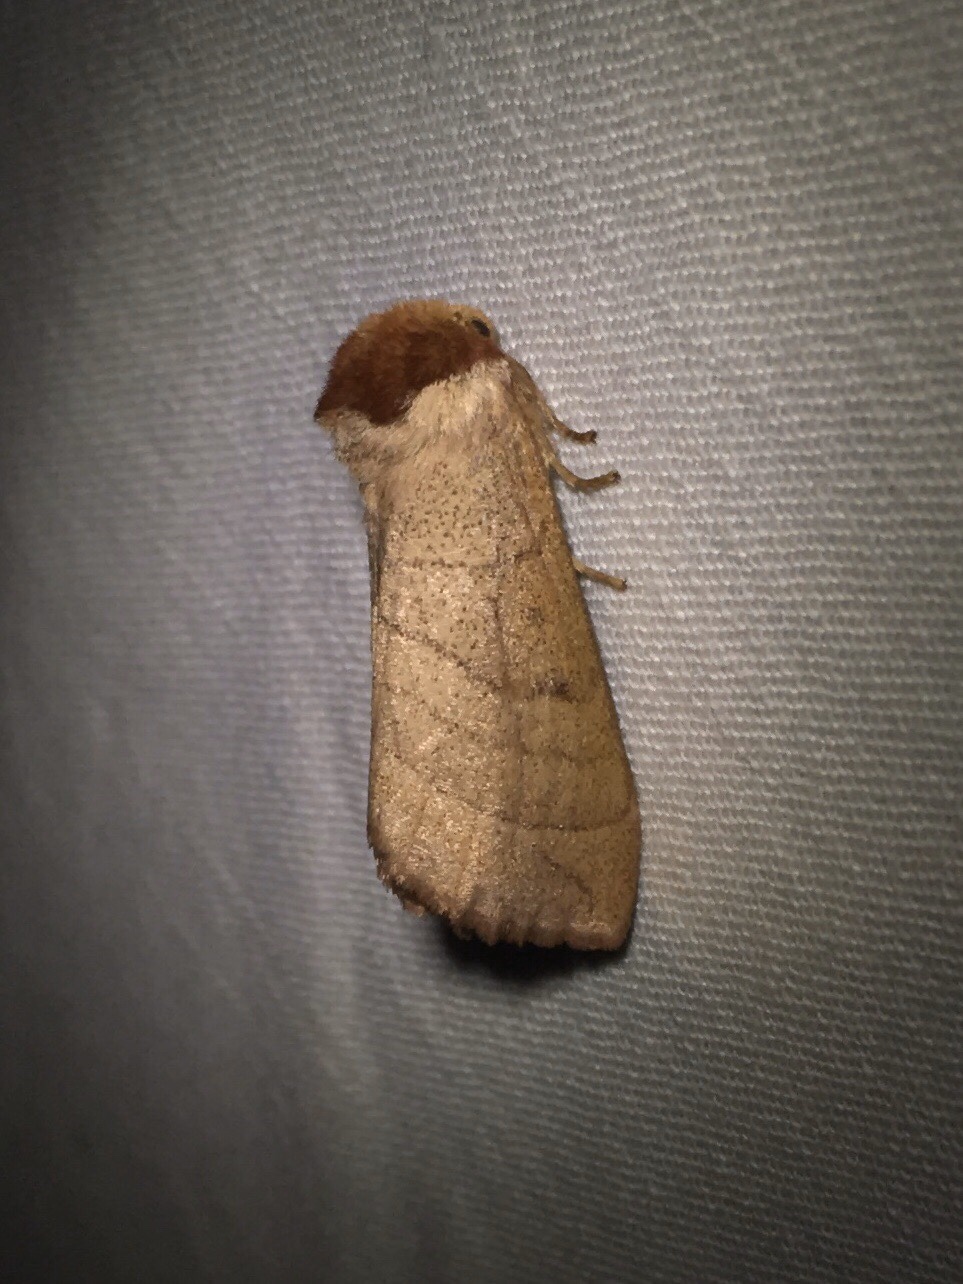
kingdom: Animalia
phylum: Arthropoda
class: Insecta
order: Lepidoptera
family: Notodontidae
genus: Datana
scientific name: Datana ministra
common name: Yellow-necked caterpillar moth
